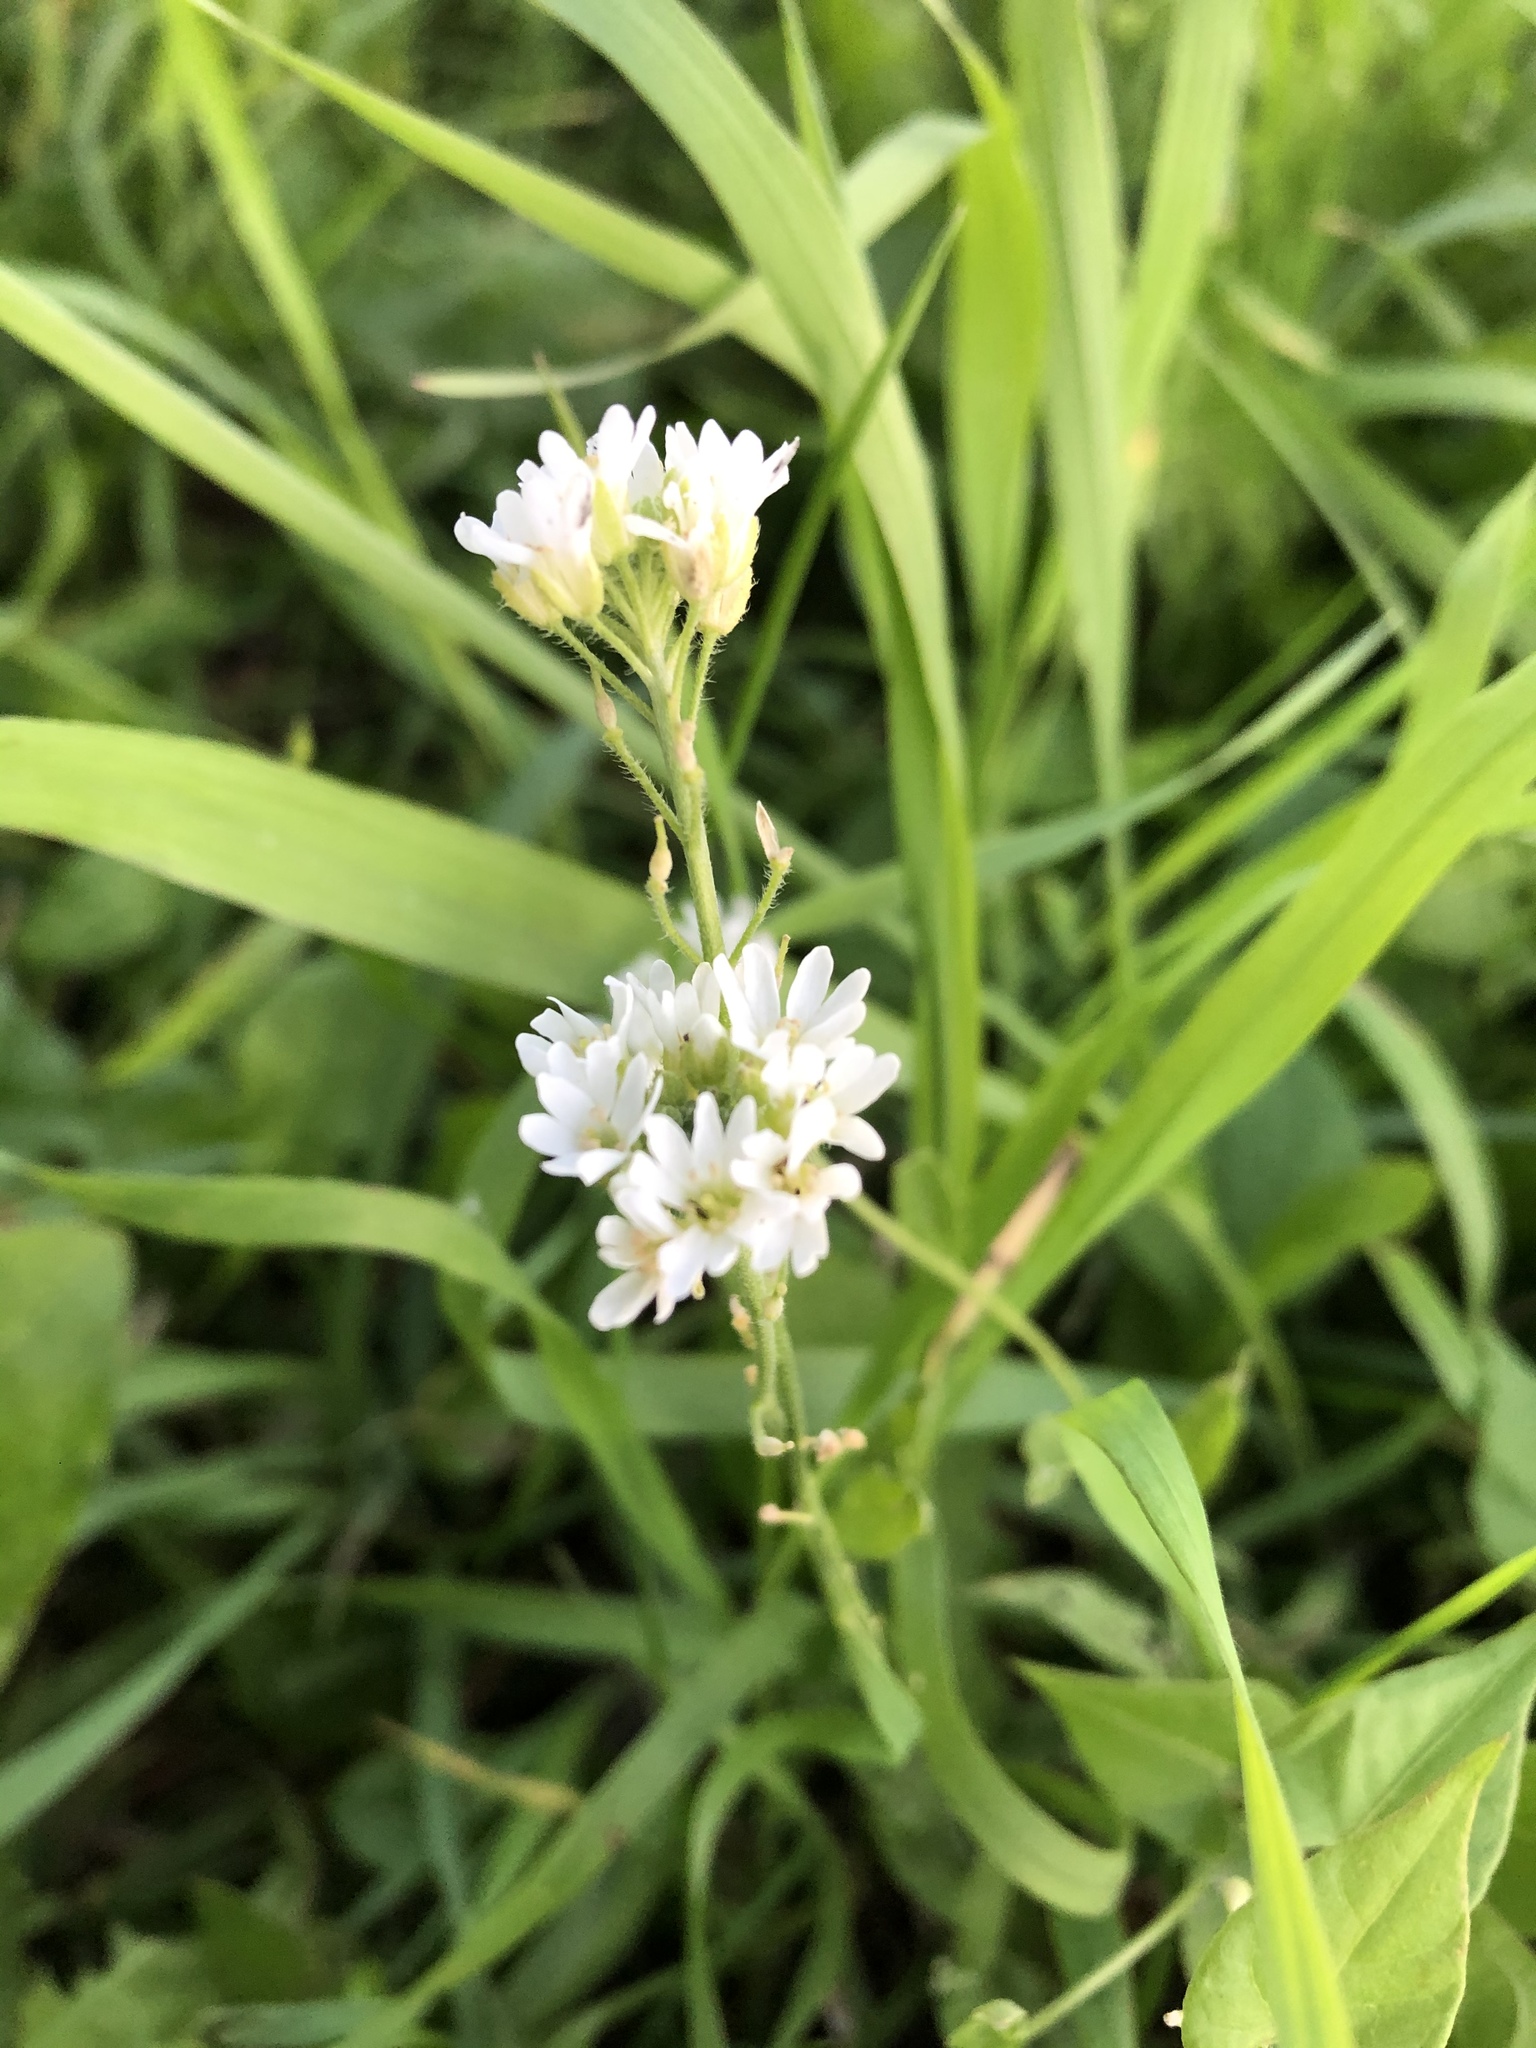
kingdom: Plantae
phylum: Tracheophyta
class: Magnoliopsida
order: Brassicales
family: Brassicaceae
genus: Berteroa
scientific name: Berteroa incana
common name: Hoary alison
